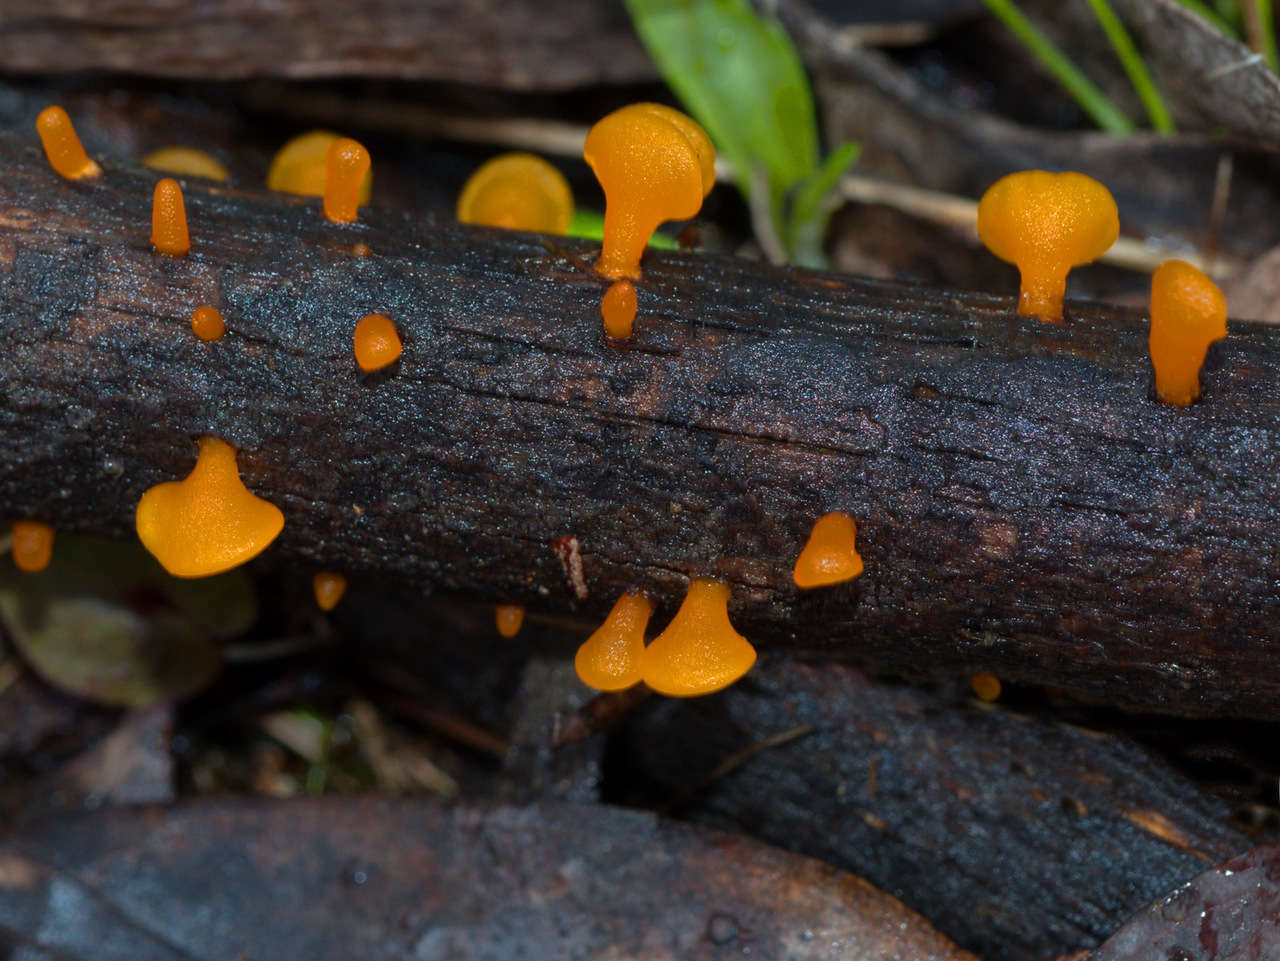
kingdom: Fungi
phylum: Basidiomycota
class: Dacrymycetes
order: Dacrymycetales
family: Dacrymycetaceae
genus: Heterotextus
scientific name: Heterotextus peziziformis
